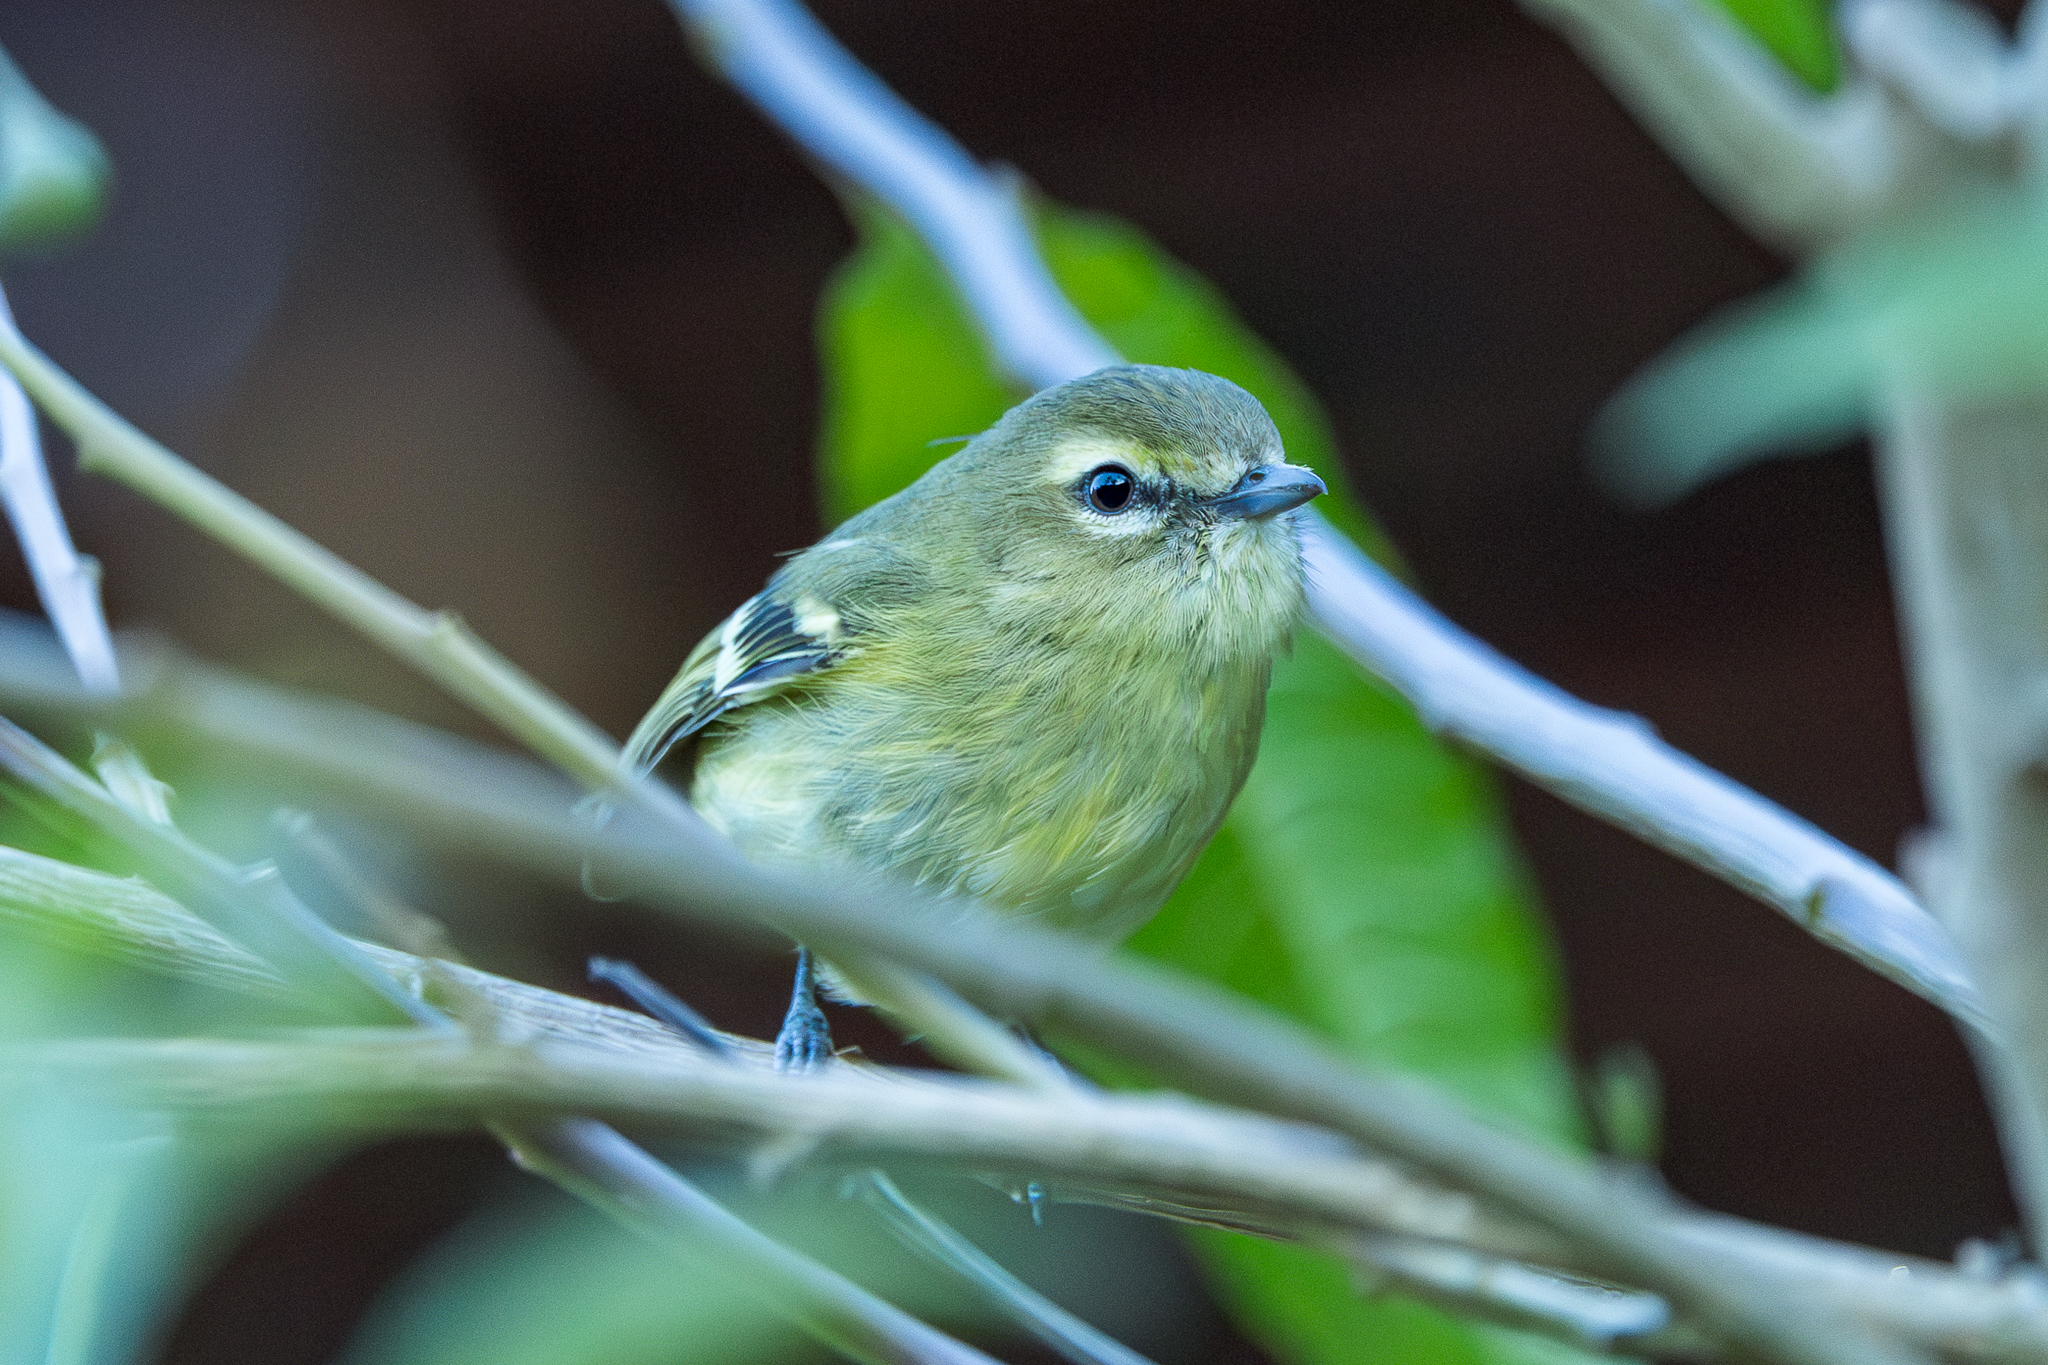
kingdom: Animalia
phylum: Chordata
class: Aves
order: Passeriformes
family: Vireonidae
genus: Vireo
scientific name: Vireo carmioli
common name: Yellow-winged vireo
